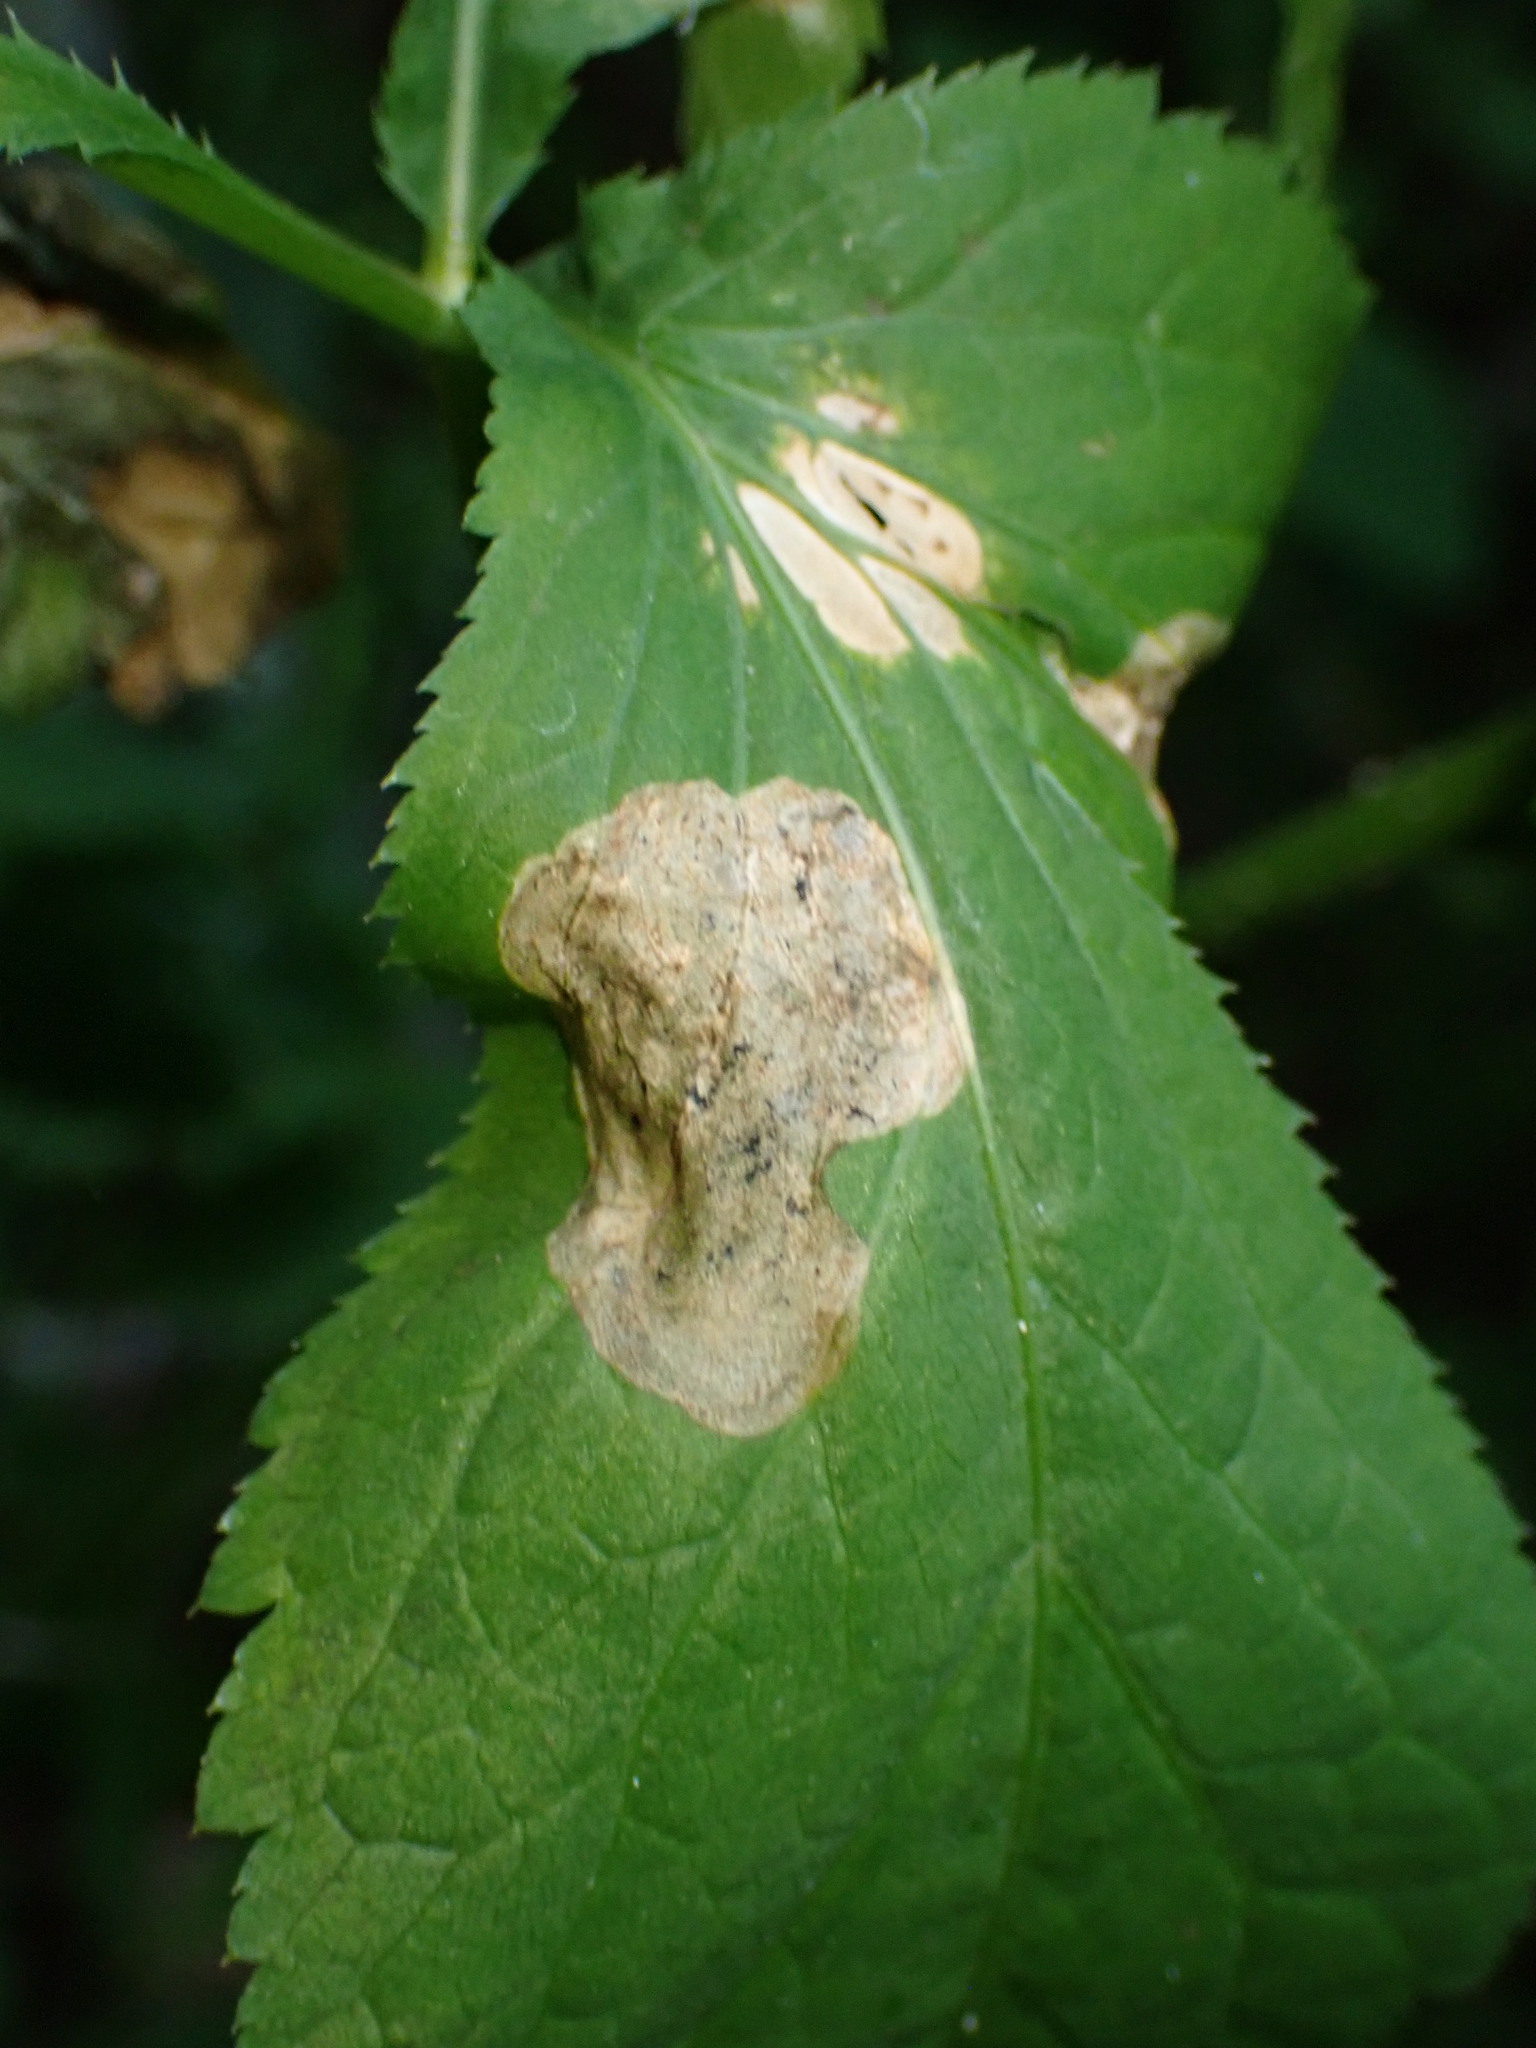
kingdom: Animalia
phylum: Arthropoda
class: Insecta
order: Diptera
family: Tephritidae
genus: Euleia
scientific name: Euleia fratria
